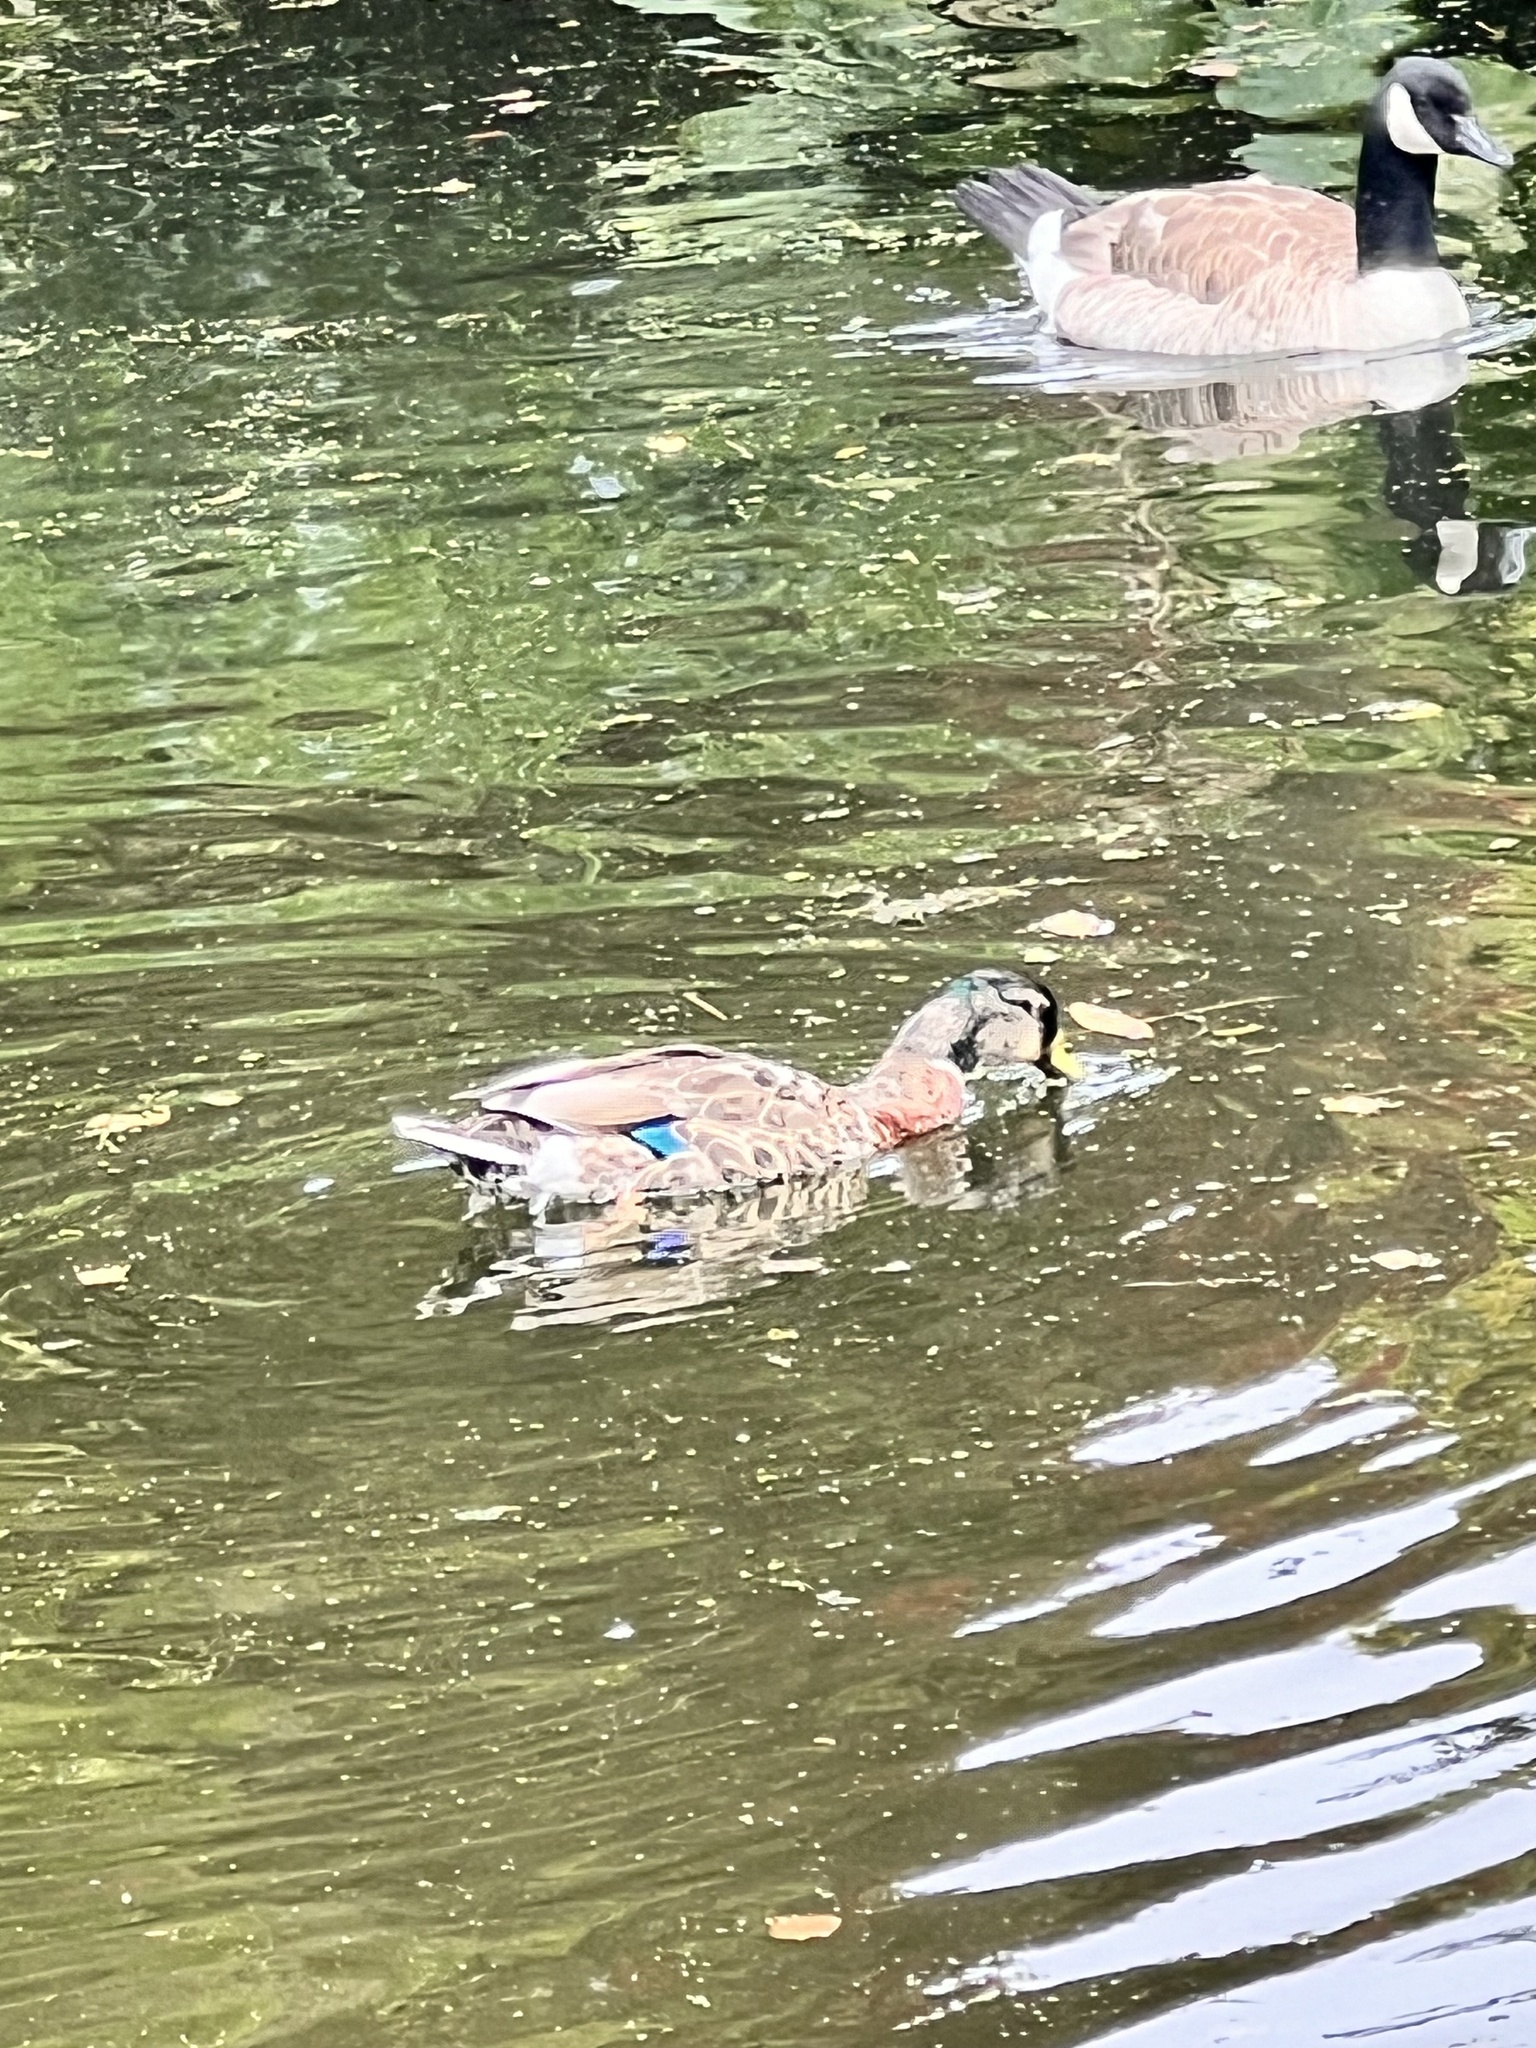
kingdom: Animalia
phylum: Chordata
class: Aves
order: Anseriformes
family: Anatidae
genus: Anas
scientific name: Anas
